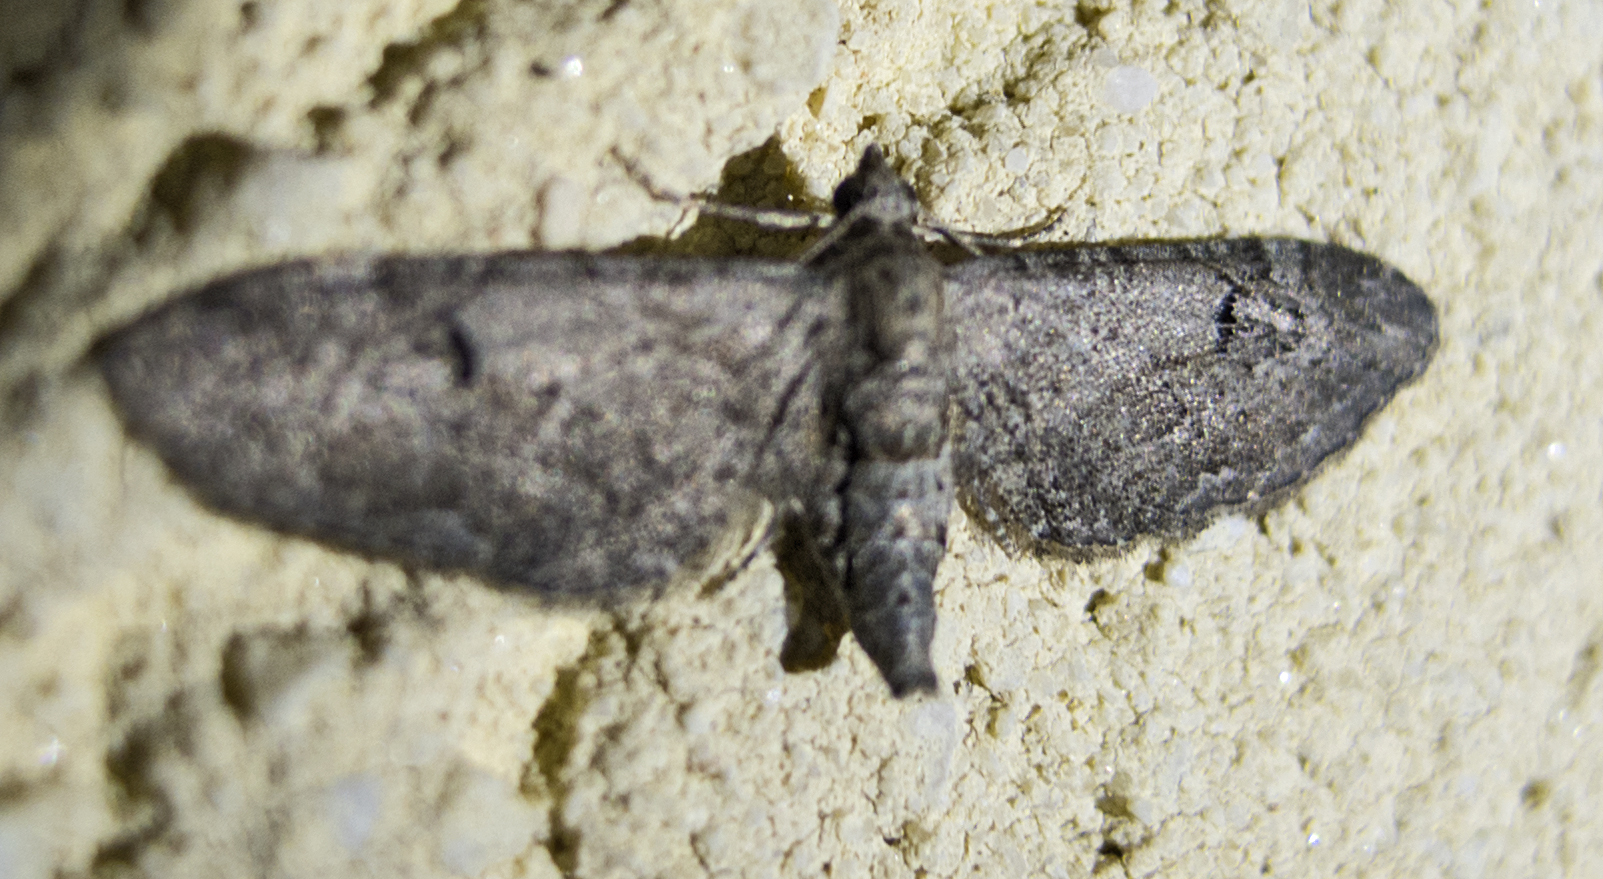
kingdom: Animalia
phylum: Arthropoda
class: Insecta
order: Lepidoptera
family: Geometridae
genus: Eupithecia
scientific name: Eupithecia innotata
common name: Angle-barred pug
